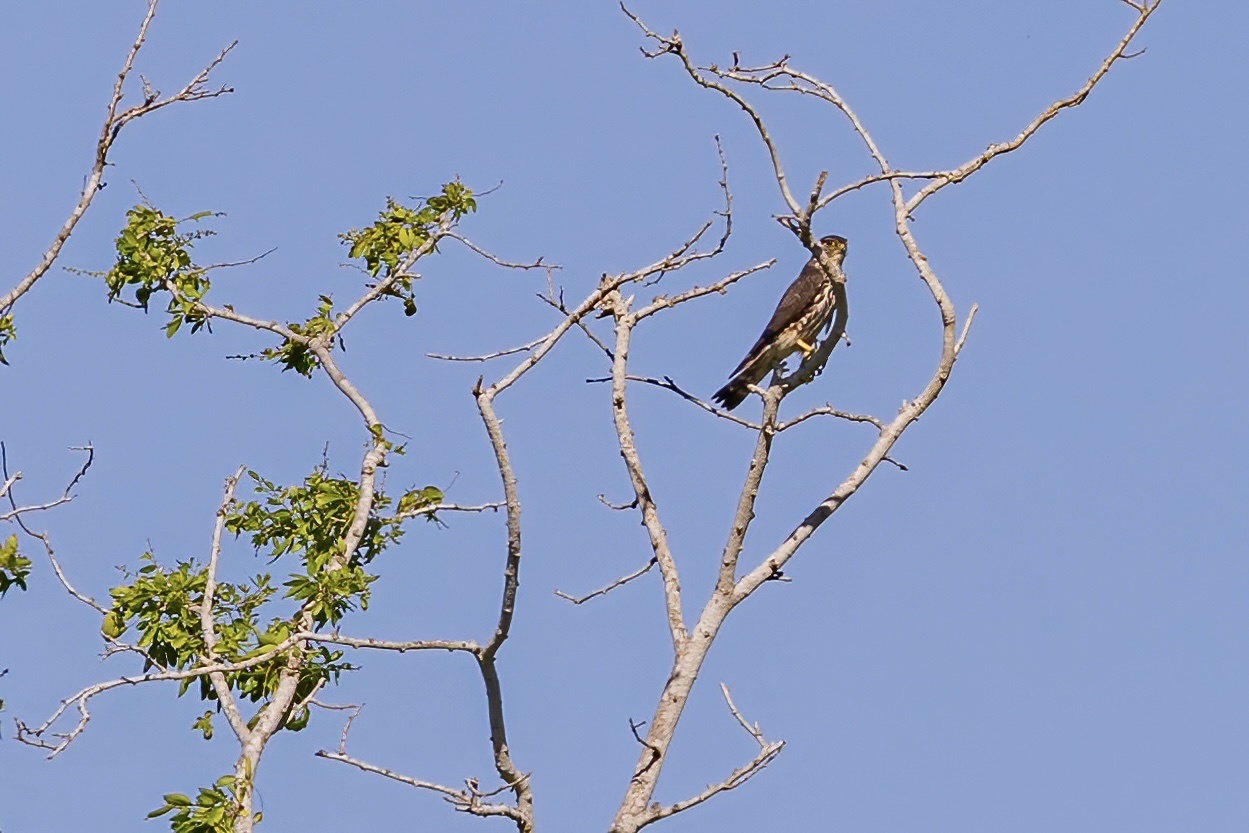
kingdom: Animalia
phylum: Chordata
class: Aves
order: Falconiformes
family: Falconidae
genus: Falco
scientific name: Falco columbarius
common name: Merlin
